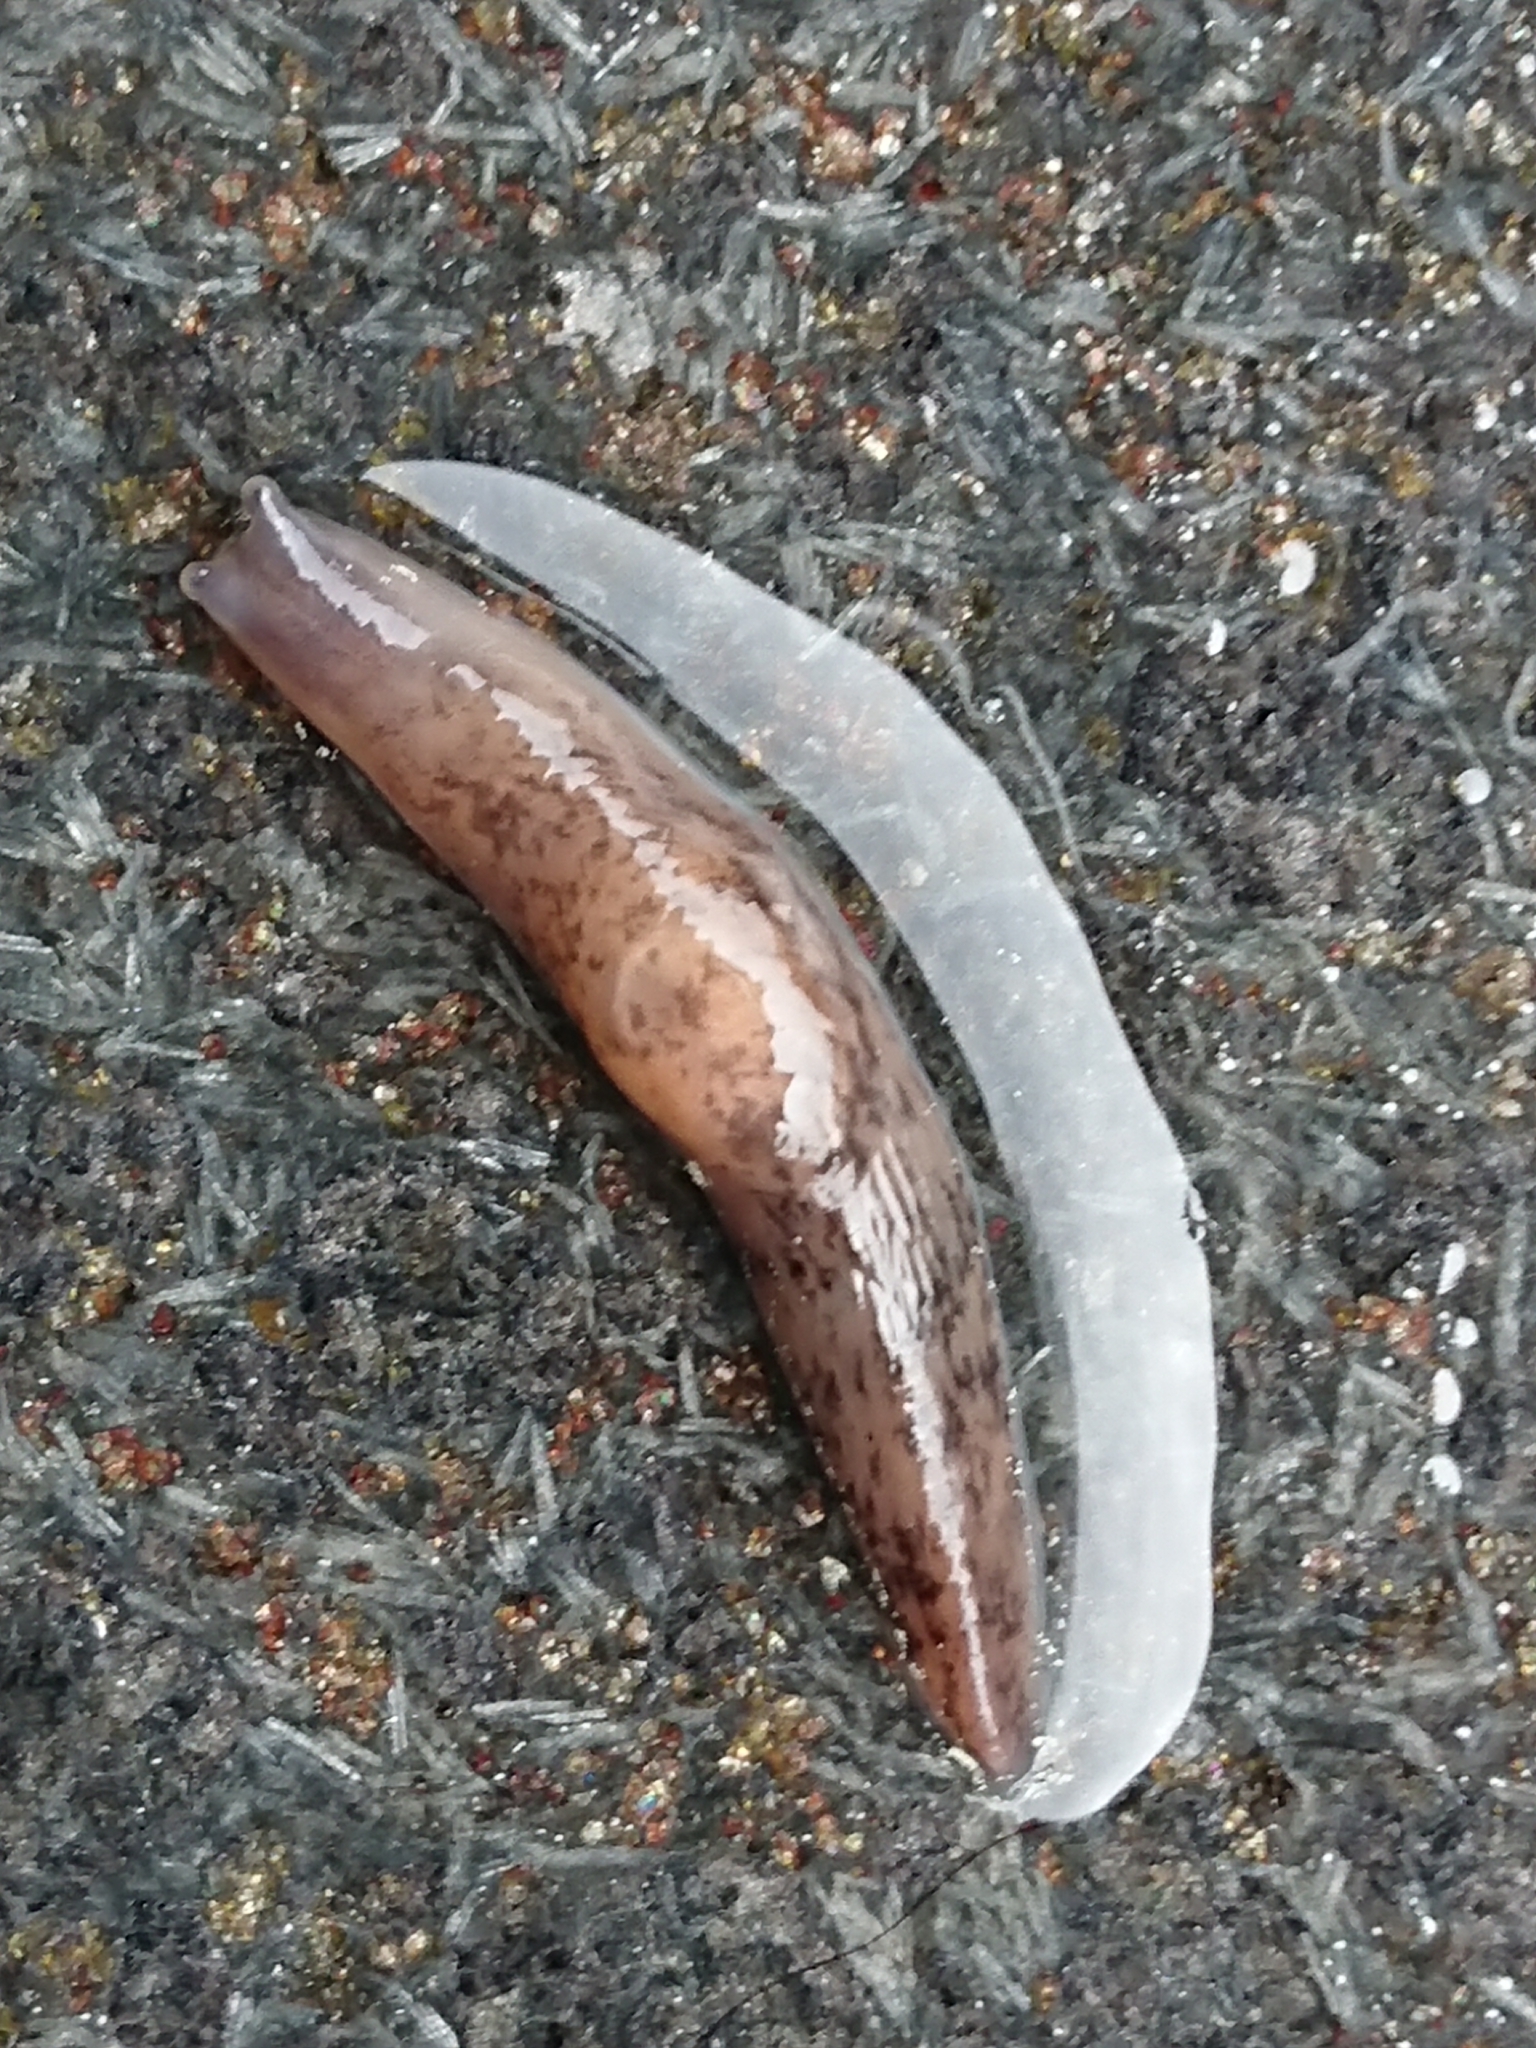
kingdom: Animalia
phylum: Mollusca
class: Gastropoda
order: Stylommatophora
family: Agriolimacidae
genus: Deroceras
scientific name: Deroceras reticulatum
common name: Gray field slug
